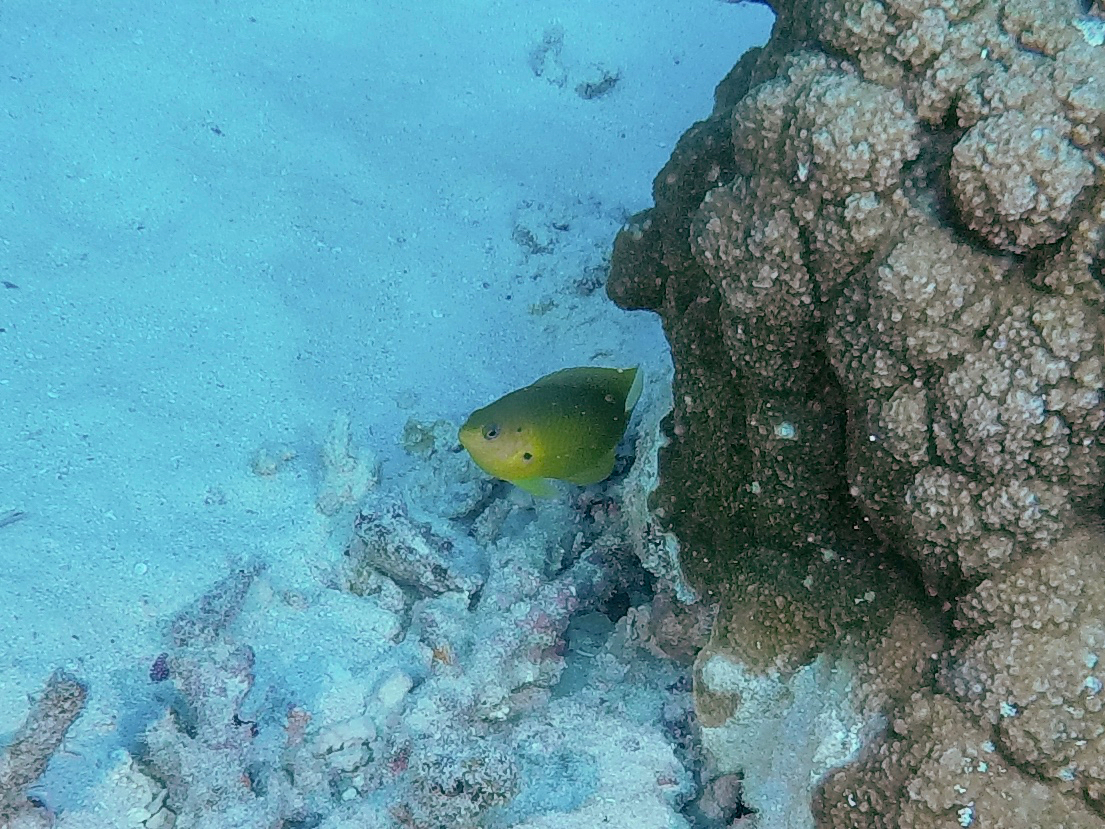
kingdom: Animalia
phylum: Chordata
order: Perciformes
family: Pomacentridae
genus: Pomacentrus
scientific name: Pomacentrus amboinensis
